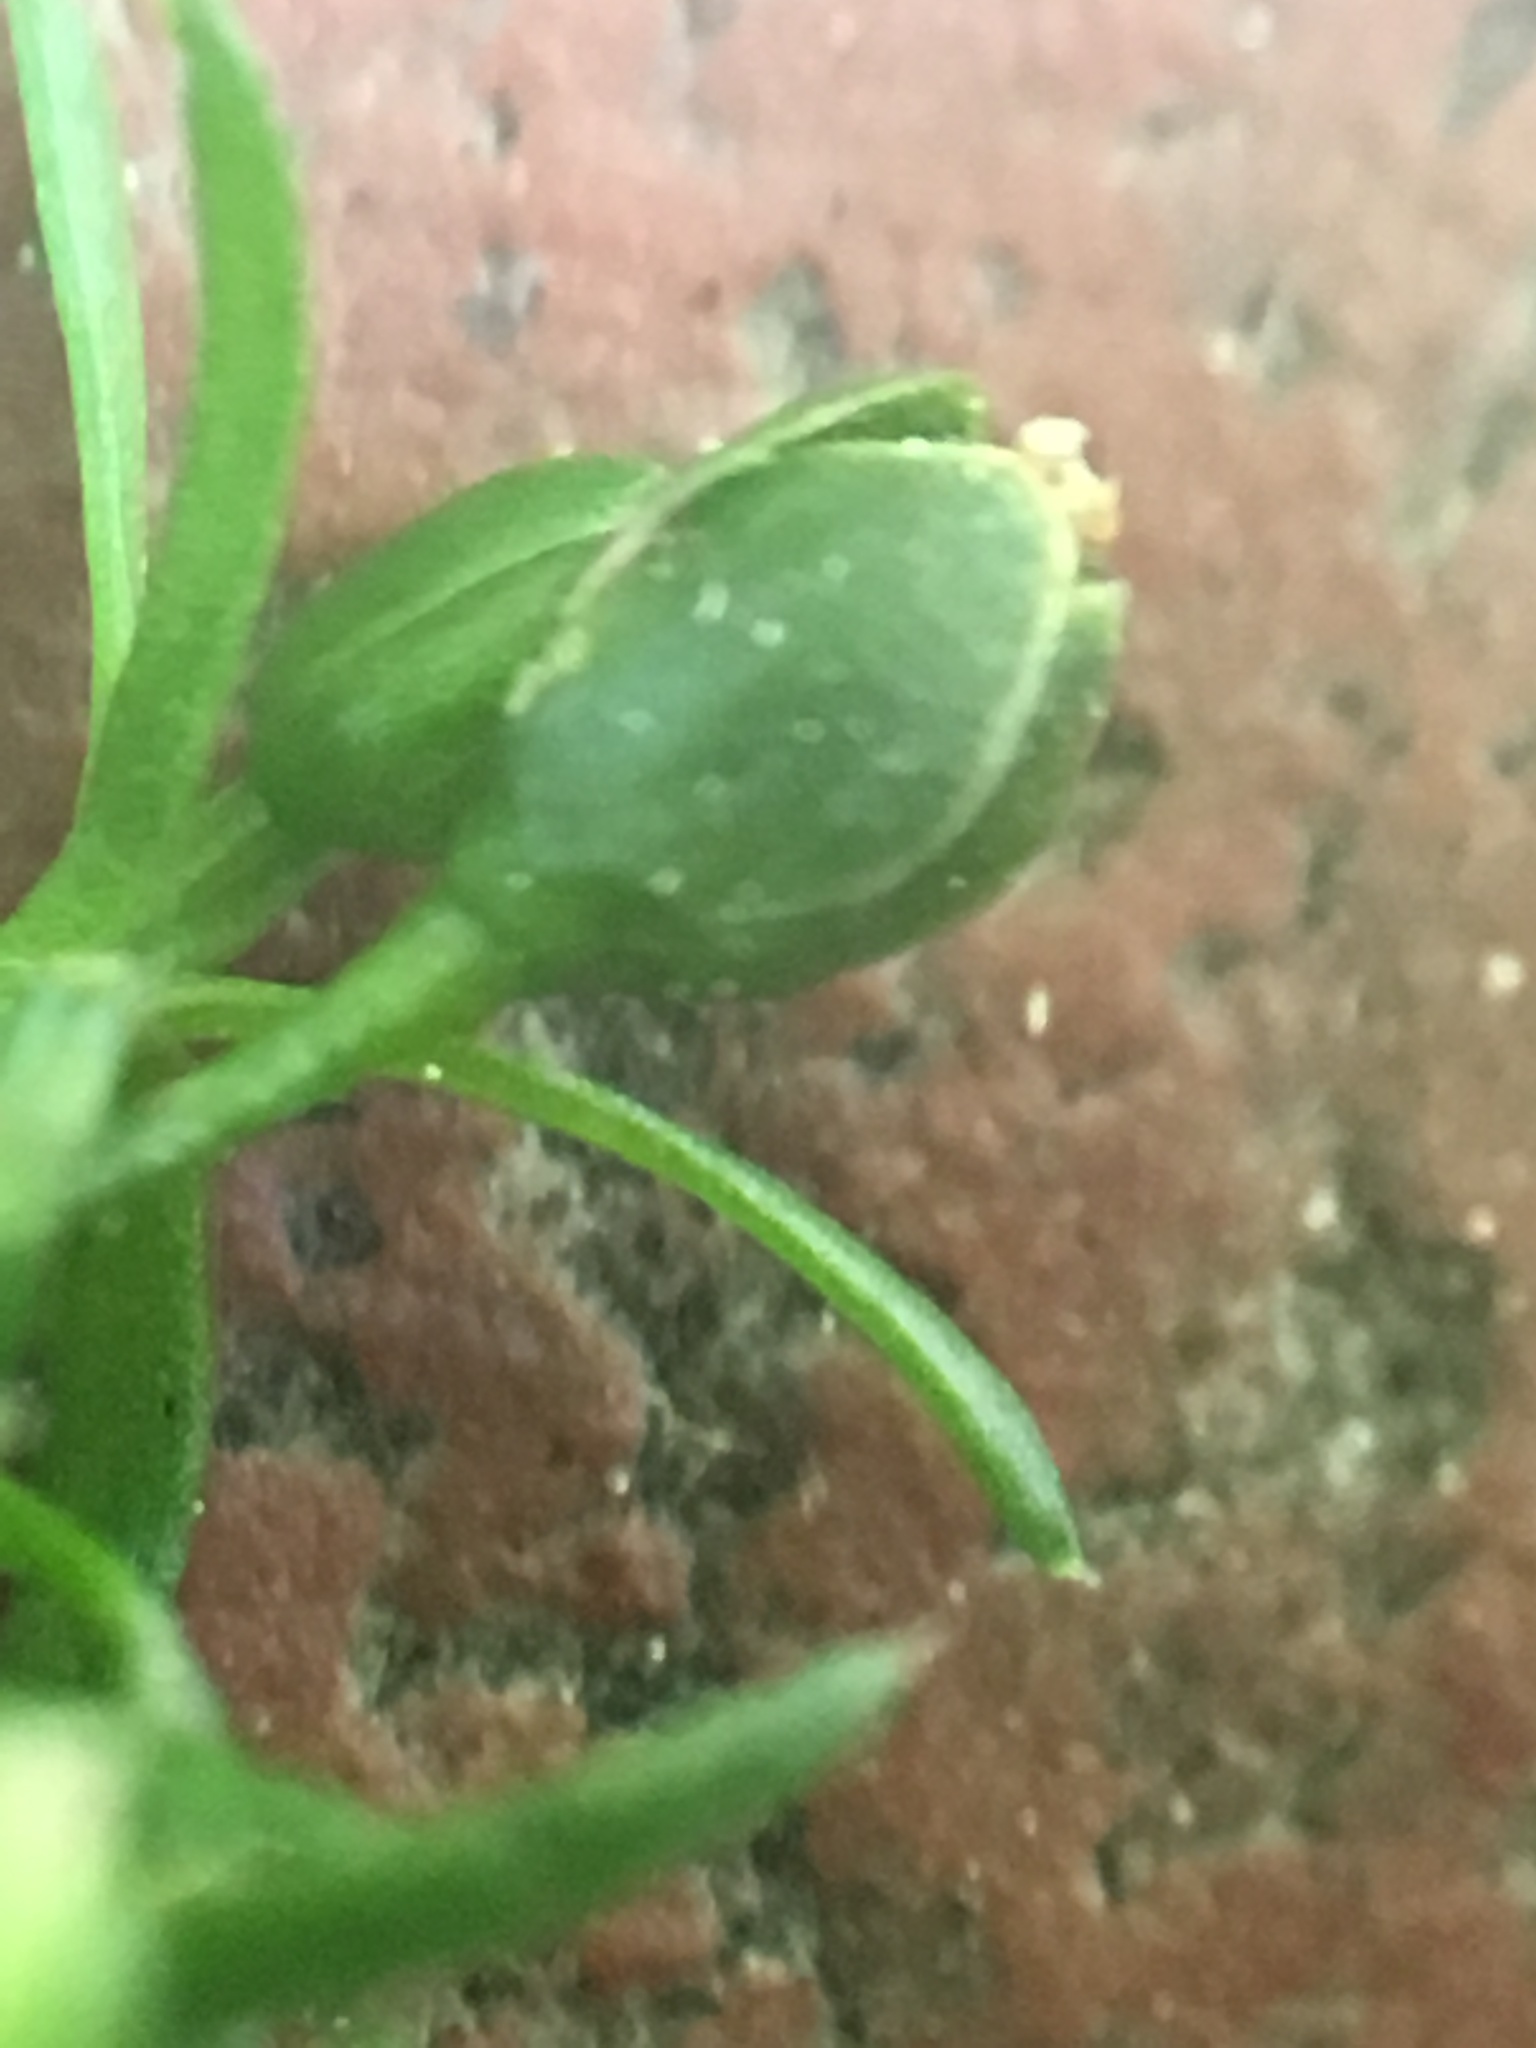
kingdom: Plantae
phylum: Tracheophyta
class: Magnoliopsida
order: Caryophyllales
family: Caryophyllaceae
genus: Sagina
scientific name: Sagina procumbens
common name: Procumbent pearlwort
